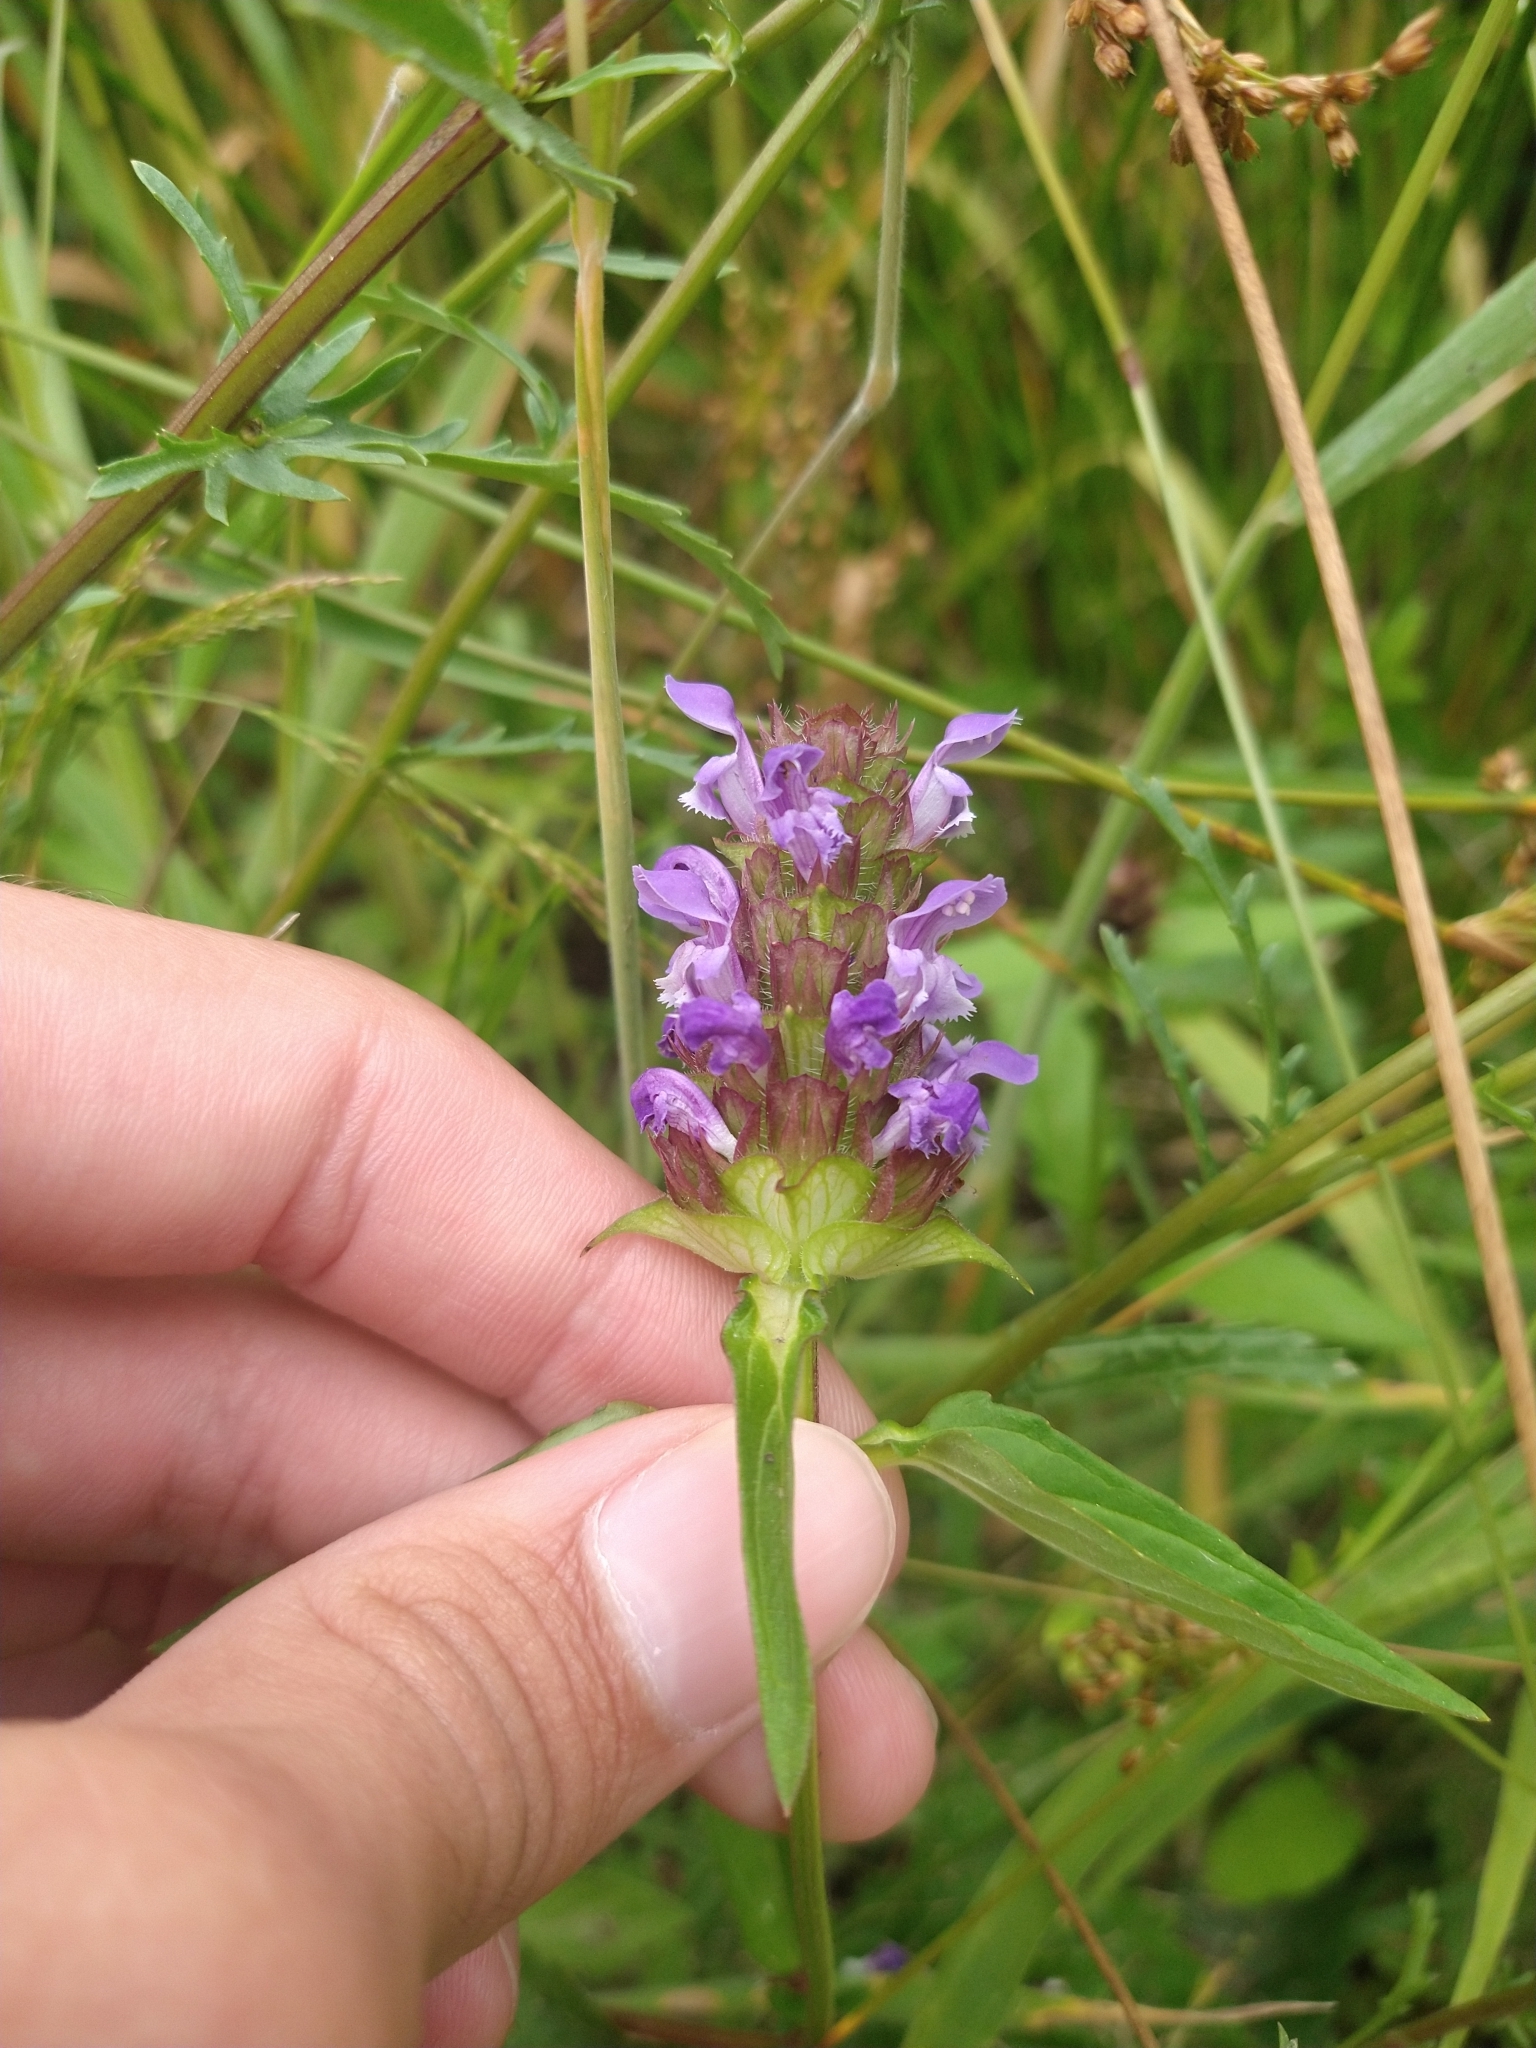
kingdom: Plantae
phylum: Tracheophyta
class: Magnoliopsida
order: Lamiales
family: Lamiaceae
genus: Prunella
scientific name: Prunella vulgaris
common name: Heal-all
